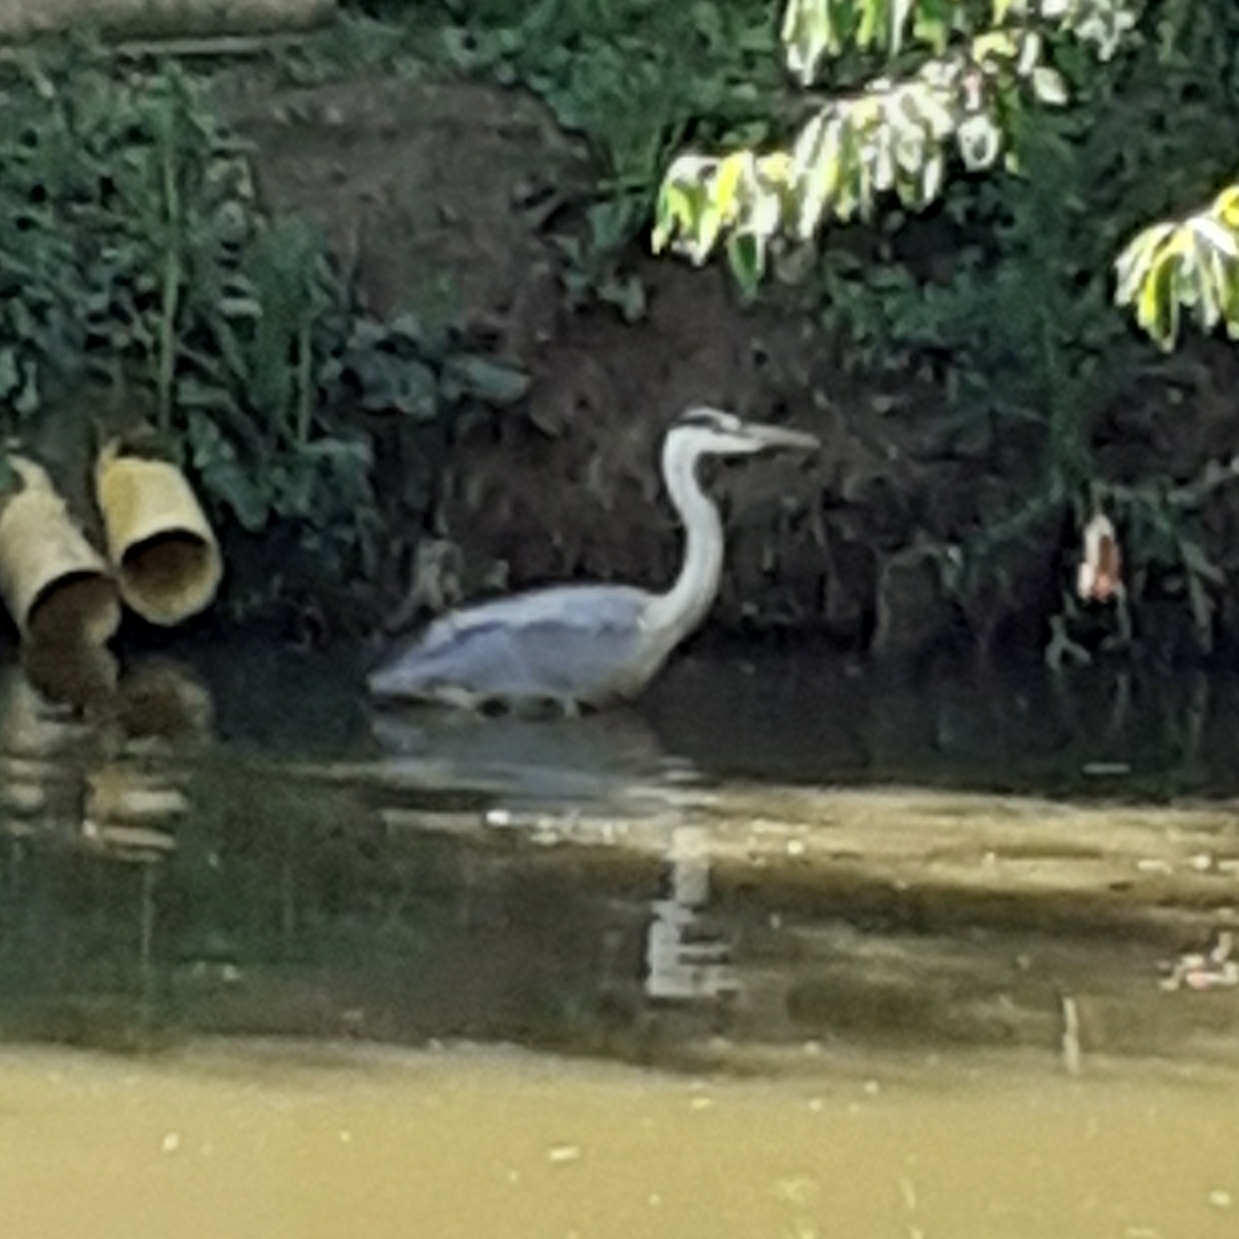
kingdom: Animalia
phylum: Chordata
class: Aves
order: Pelecaniformes
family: Ardeidae
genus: Ardea
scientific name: Ardea cinerea
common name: Grey heron
